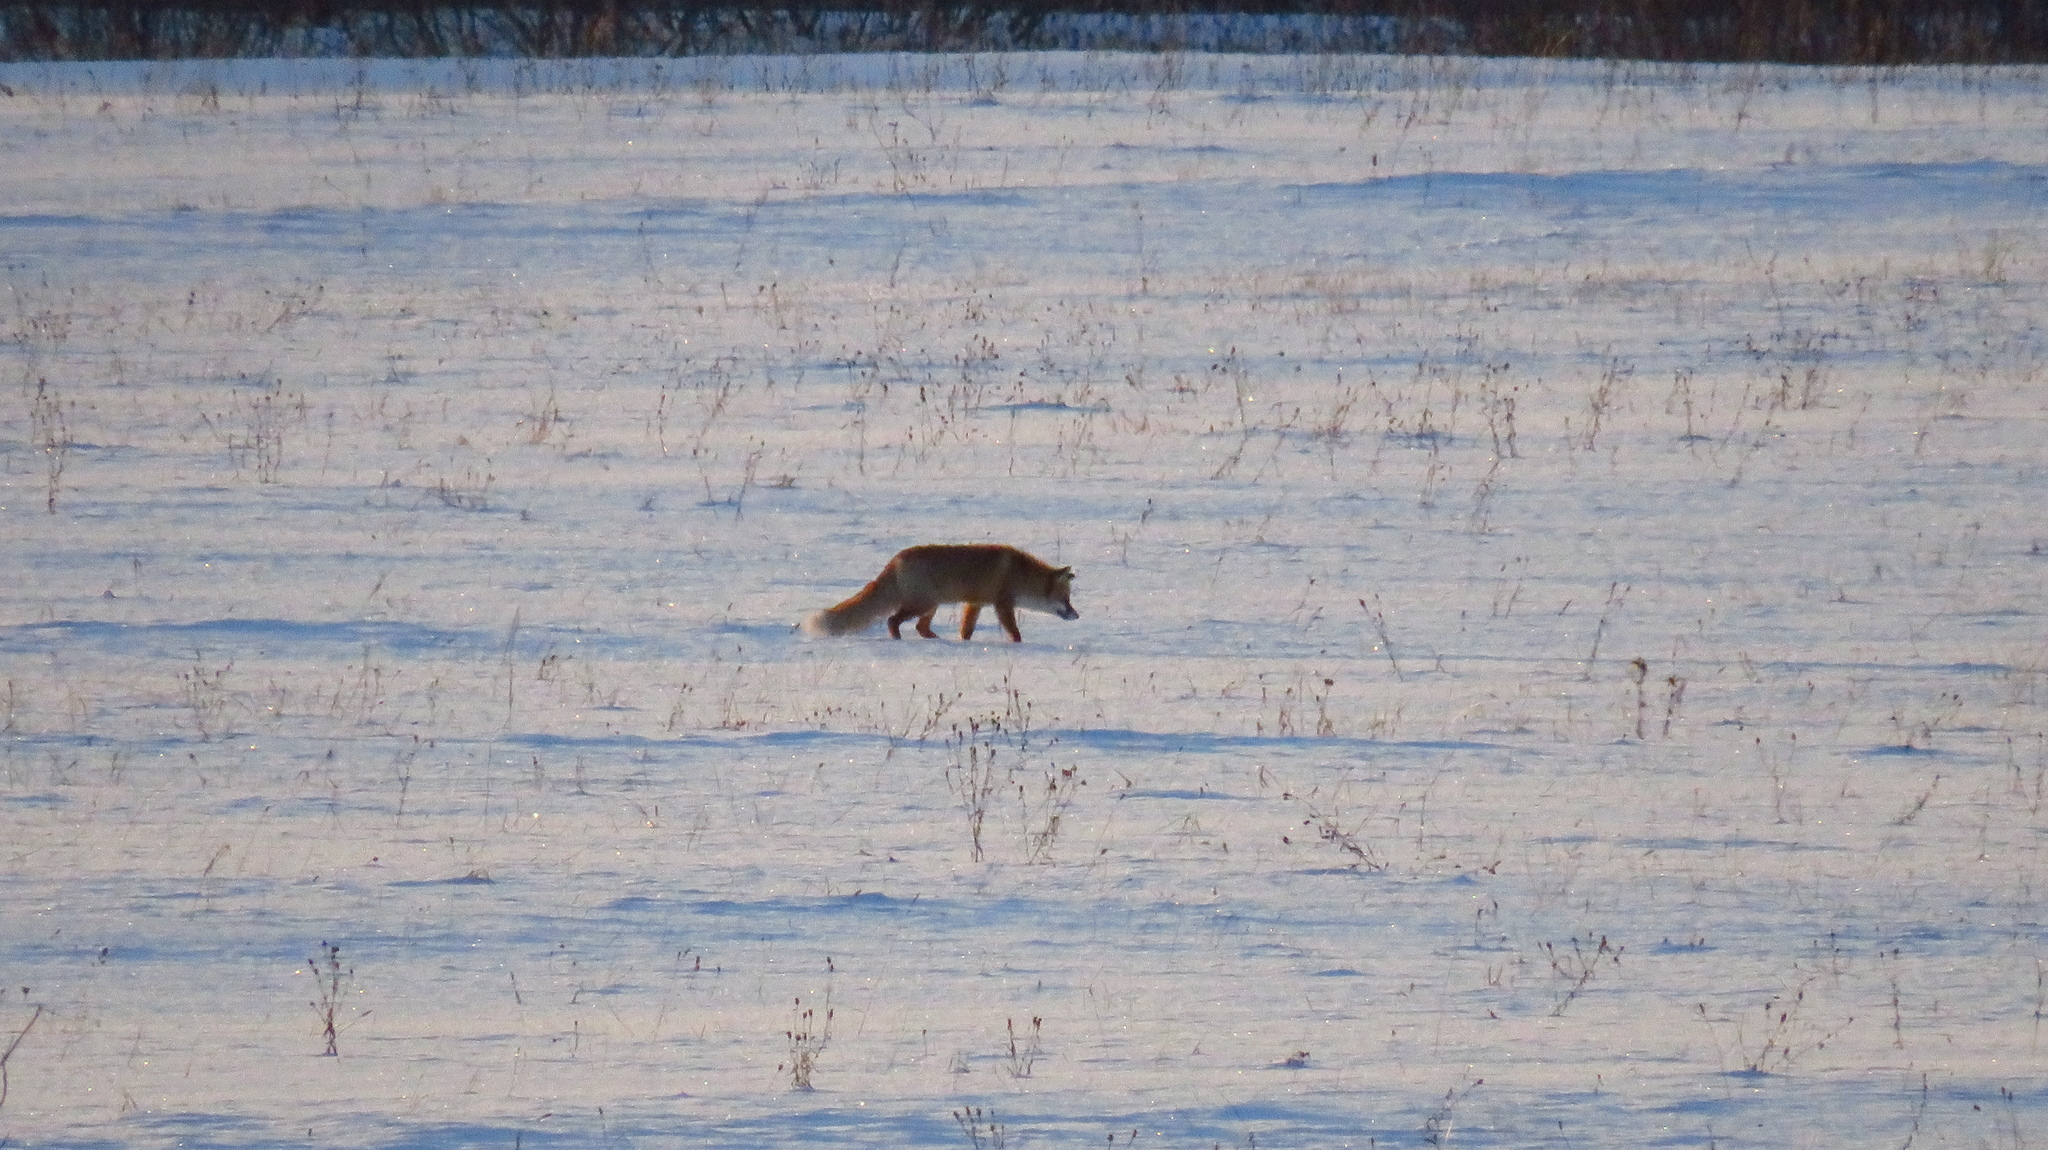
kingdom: Animalia
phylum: Chordata
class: Mammalia
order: Carnivora
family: Canidae
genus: Vulpes
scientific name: Vulpes vulpes
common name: Red fox
